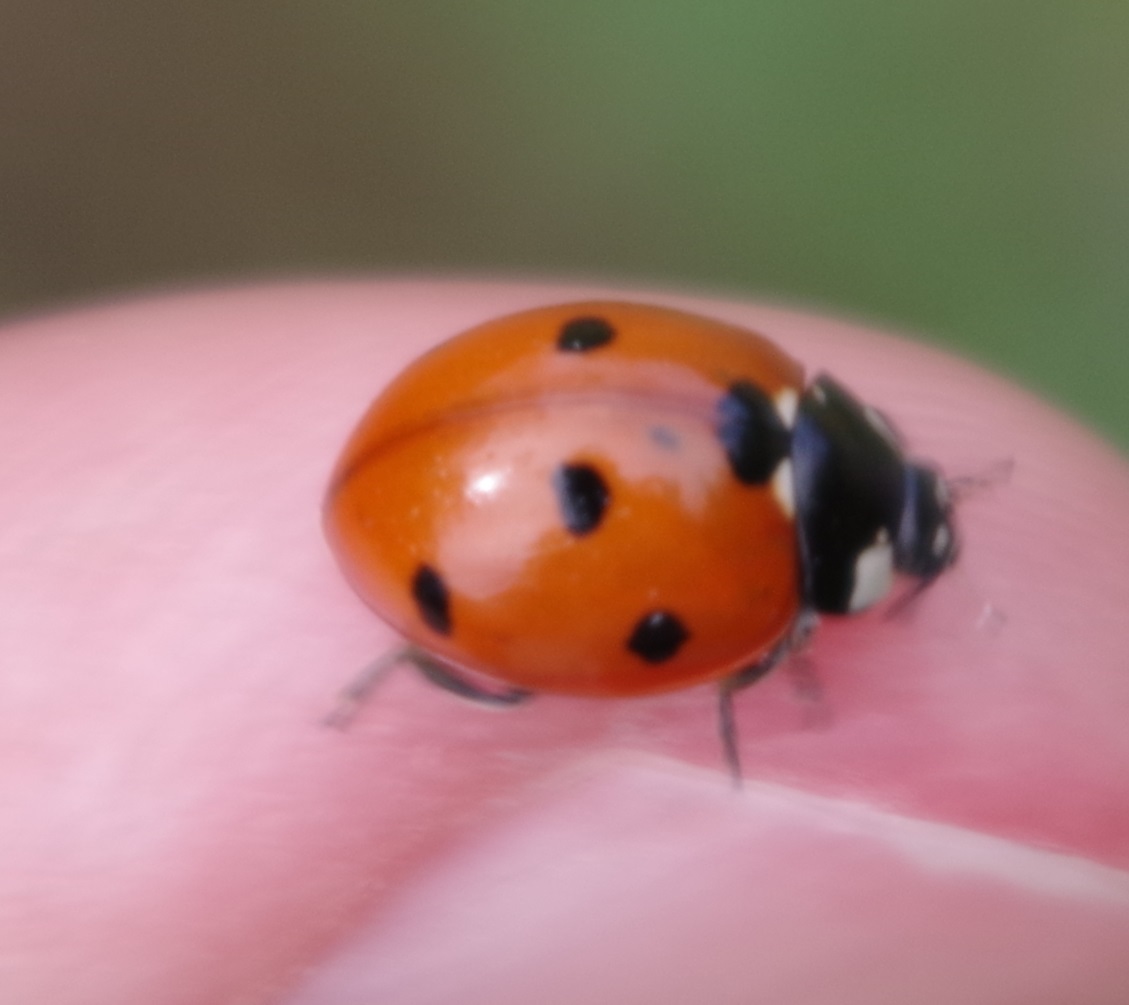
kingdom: Animalia
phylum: Arthropoda
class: Insecta
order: Coleoptera
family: Coccinellidae
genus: Coccinella
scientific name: Coccinella septempunctata
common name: Sevenspotted lady beetle
